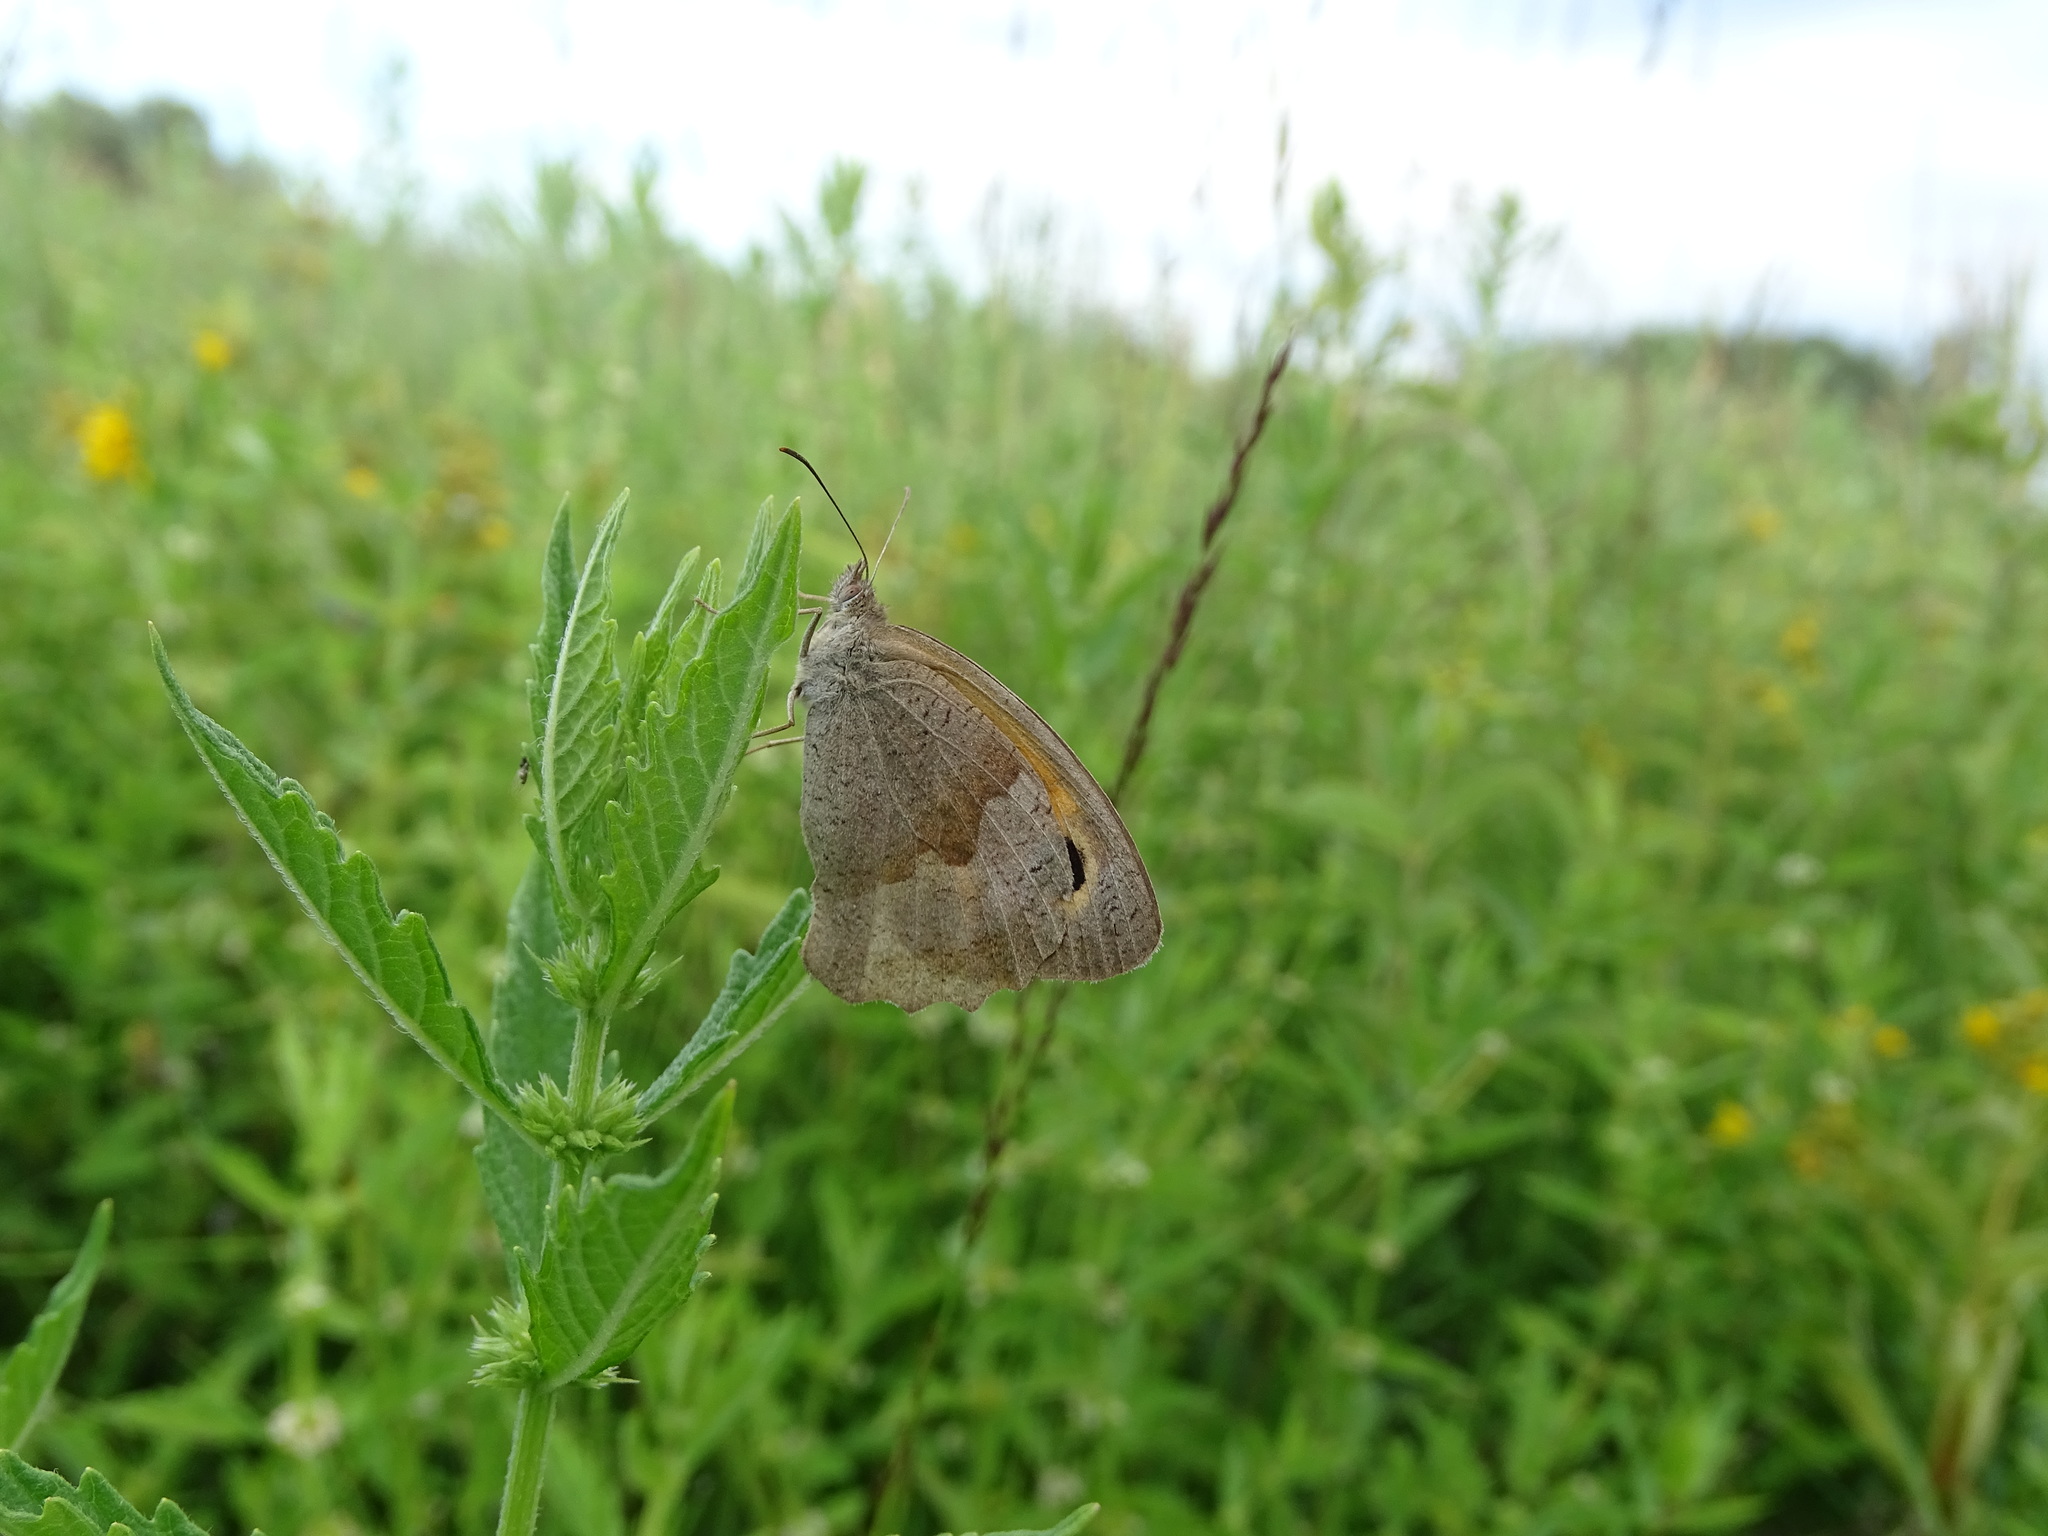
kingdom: Animalia
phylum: Arthropoda
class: Insecta
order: Lepidoptera
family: Nymphalidae
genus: Maniola
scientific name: Maniola jurtina
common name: Meadow brown
